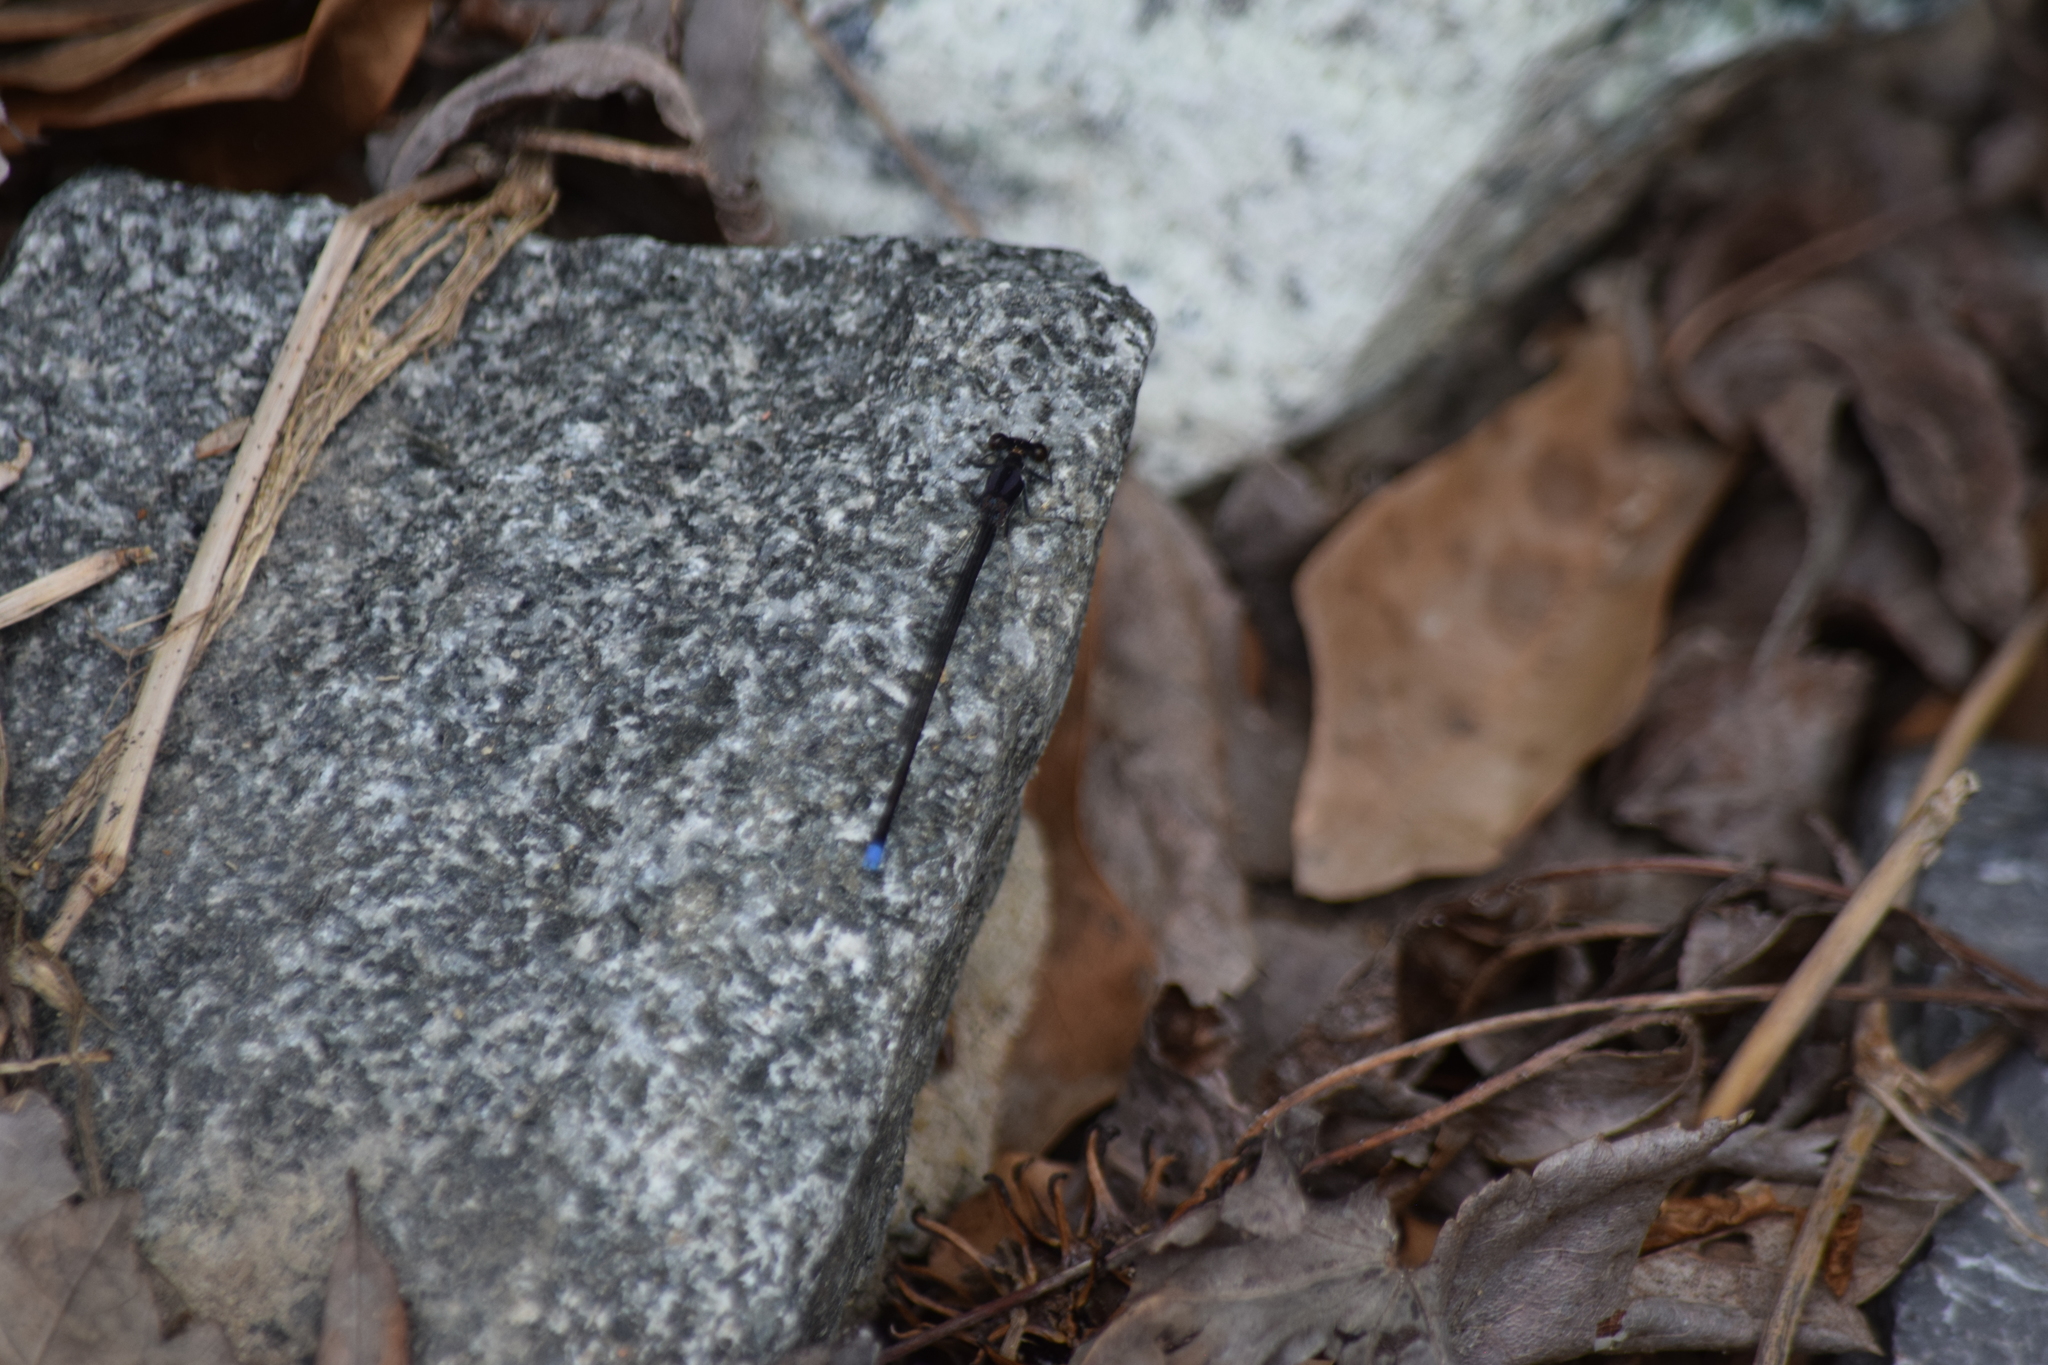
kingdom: Animalia
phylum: Arthropoda
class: Insecta
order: Odonata
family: Coenagrionidae
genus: Argia
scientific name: Argia tibialis
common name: Blue-tipped dancer
